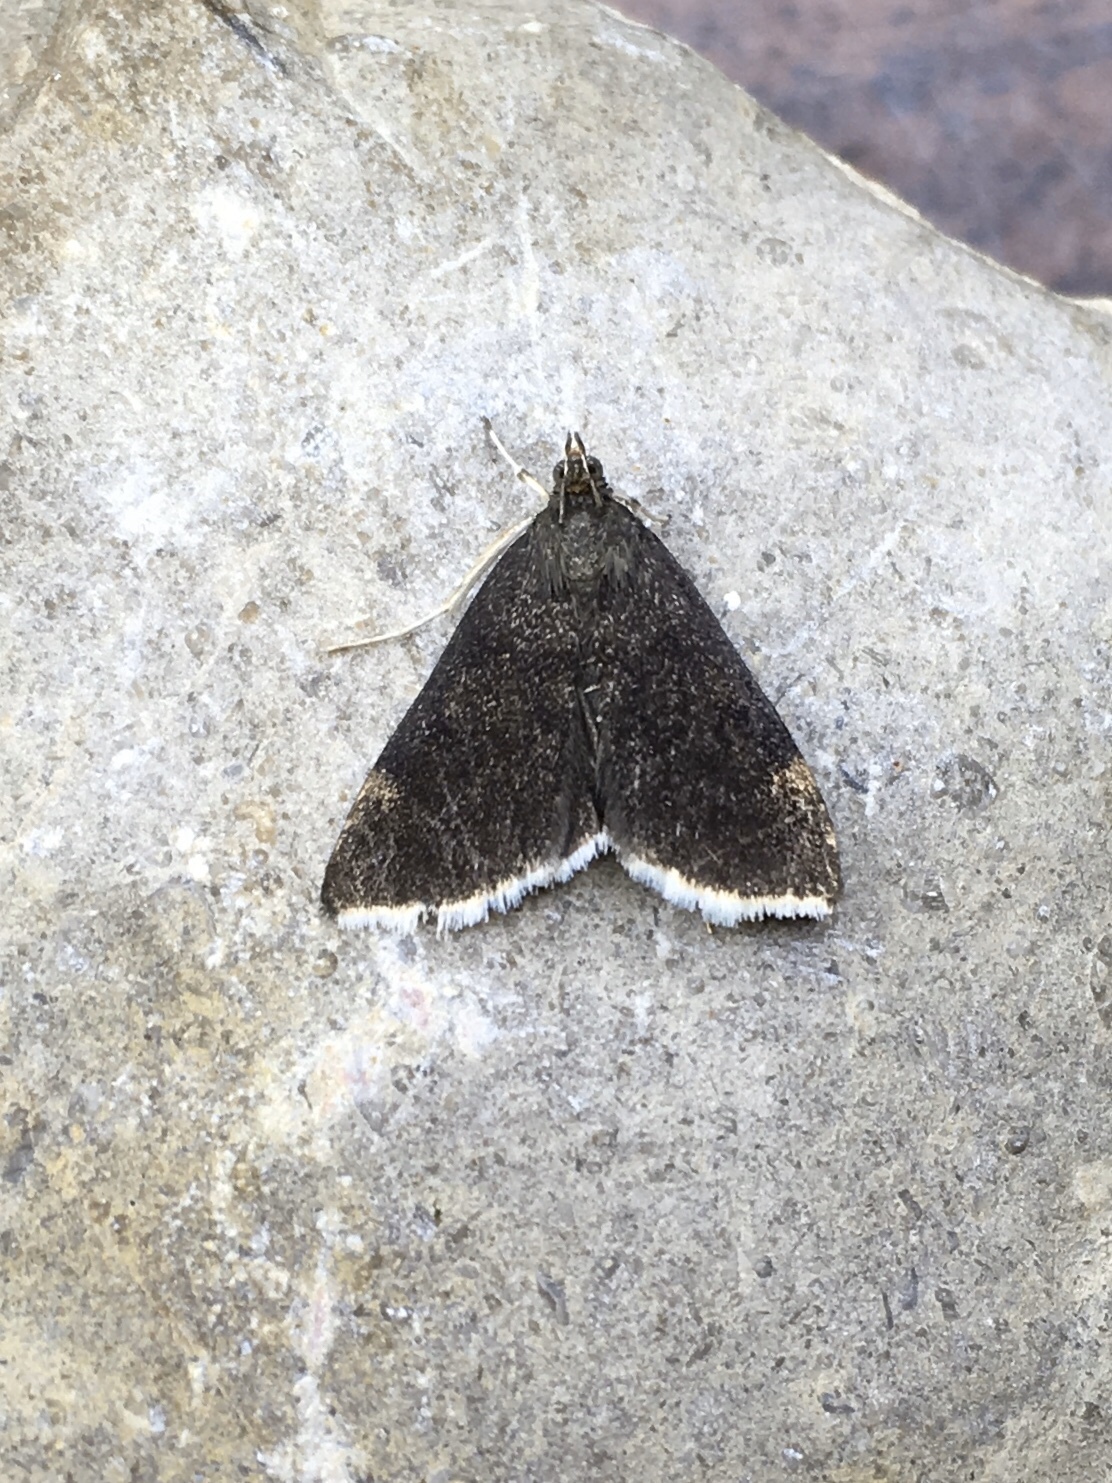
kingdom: Animalia
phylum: Arthropoda
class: Insecta
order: Lepidoptera
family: Crambidae
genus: Pyrausta
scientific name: Pyrausta niveicilialis
